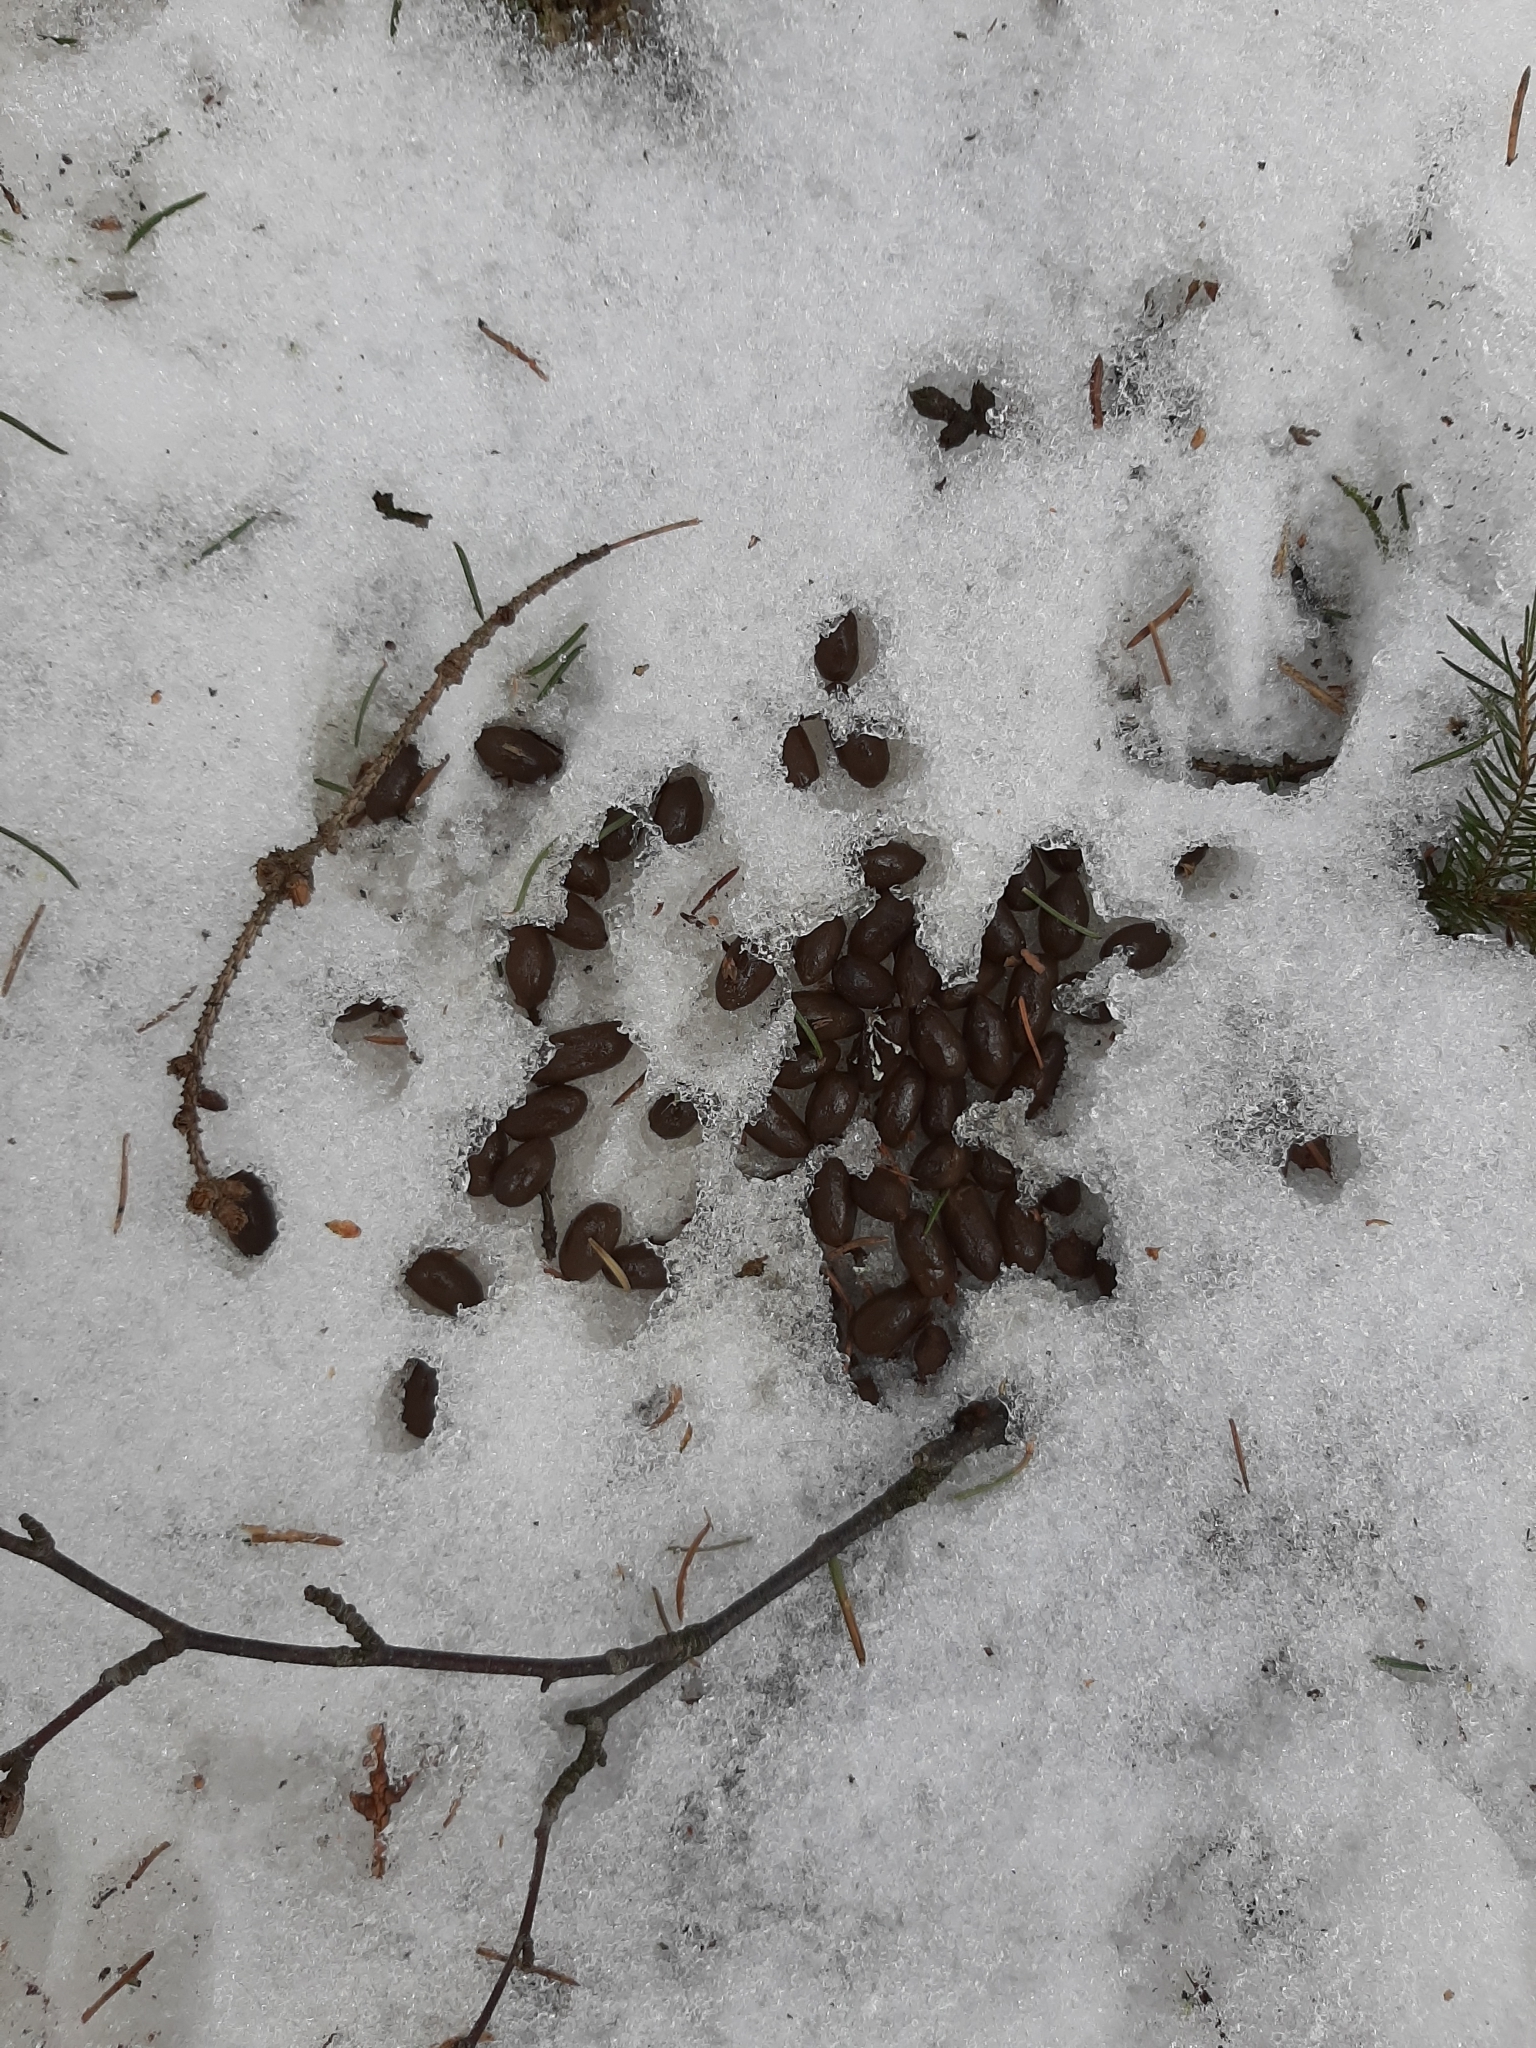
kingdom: Animalia
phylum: Chordata
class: Mammalia
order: Artiodactyla
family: Cervidae
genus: Capreolus
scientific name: Capreolus capreolus
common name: Western roe deer
